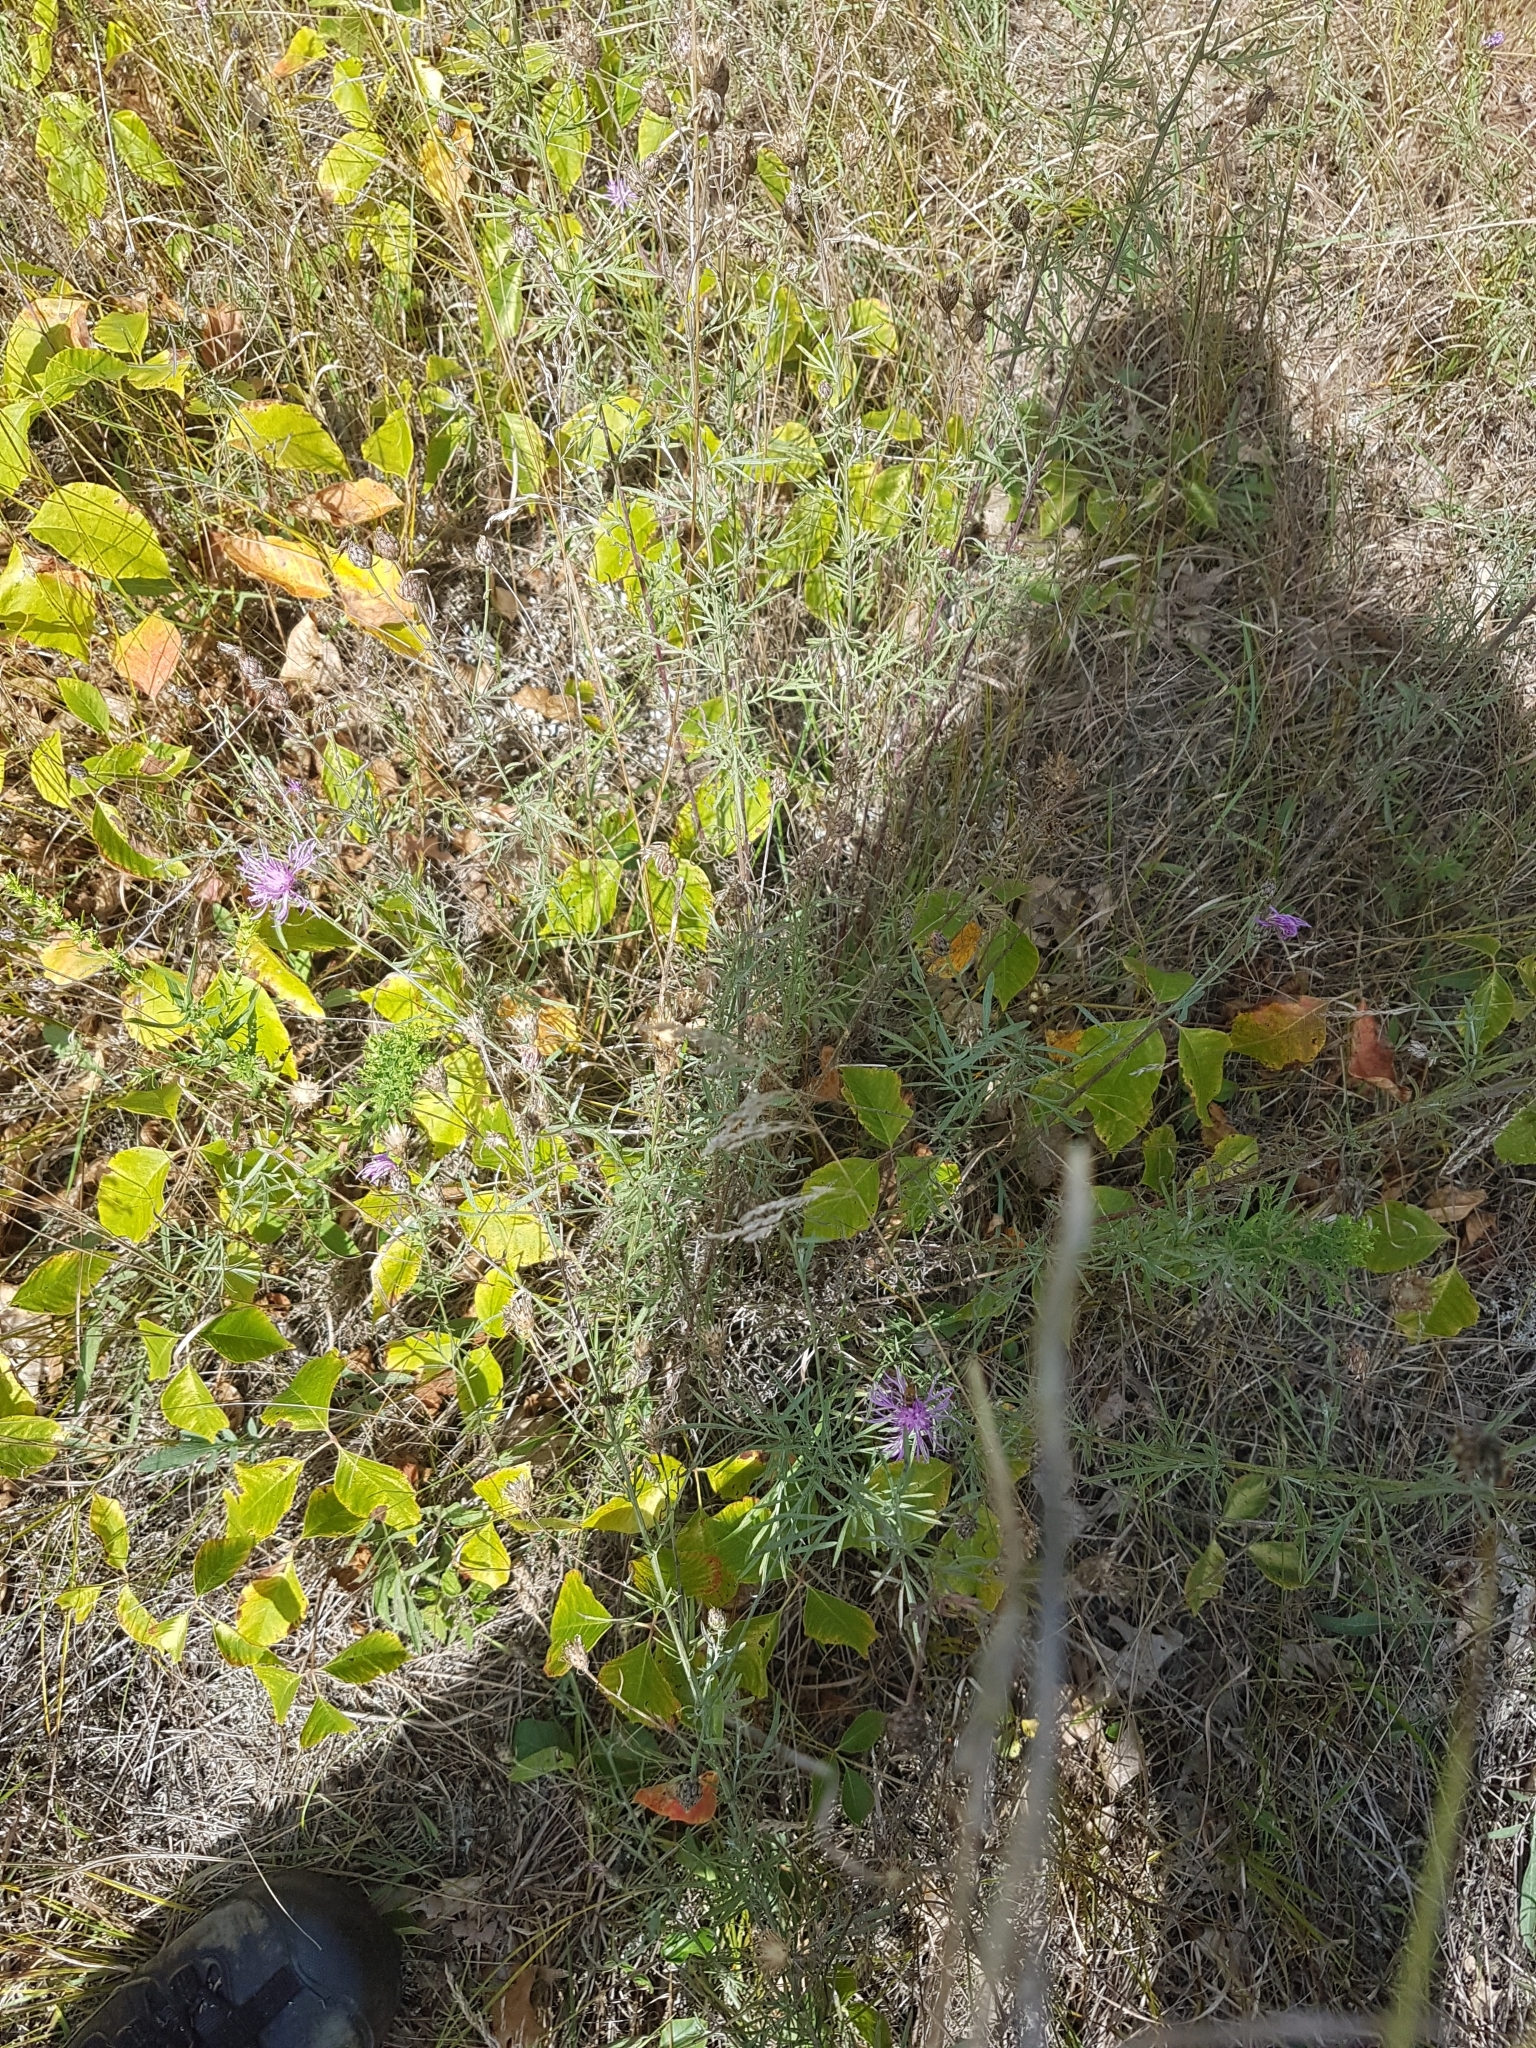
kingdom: Plantae
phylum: Tracheophyta
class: Magnoliopsida
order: Asterales
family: Asteraceae
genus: Centaurea
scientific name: Centaurea stoebe
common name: Spotted knapweed
